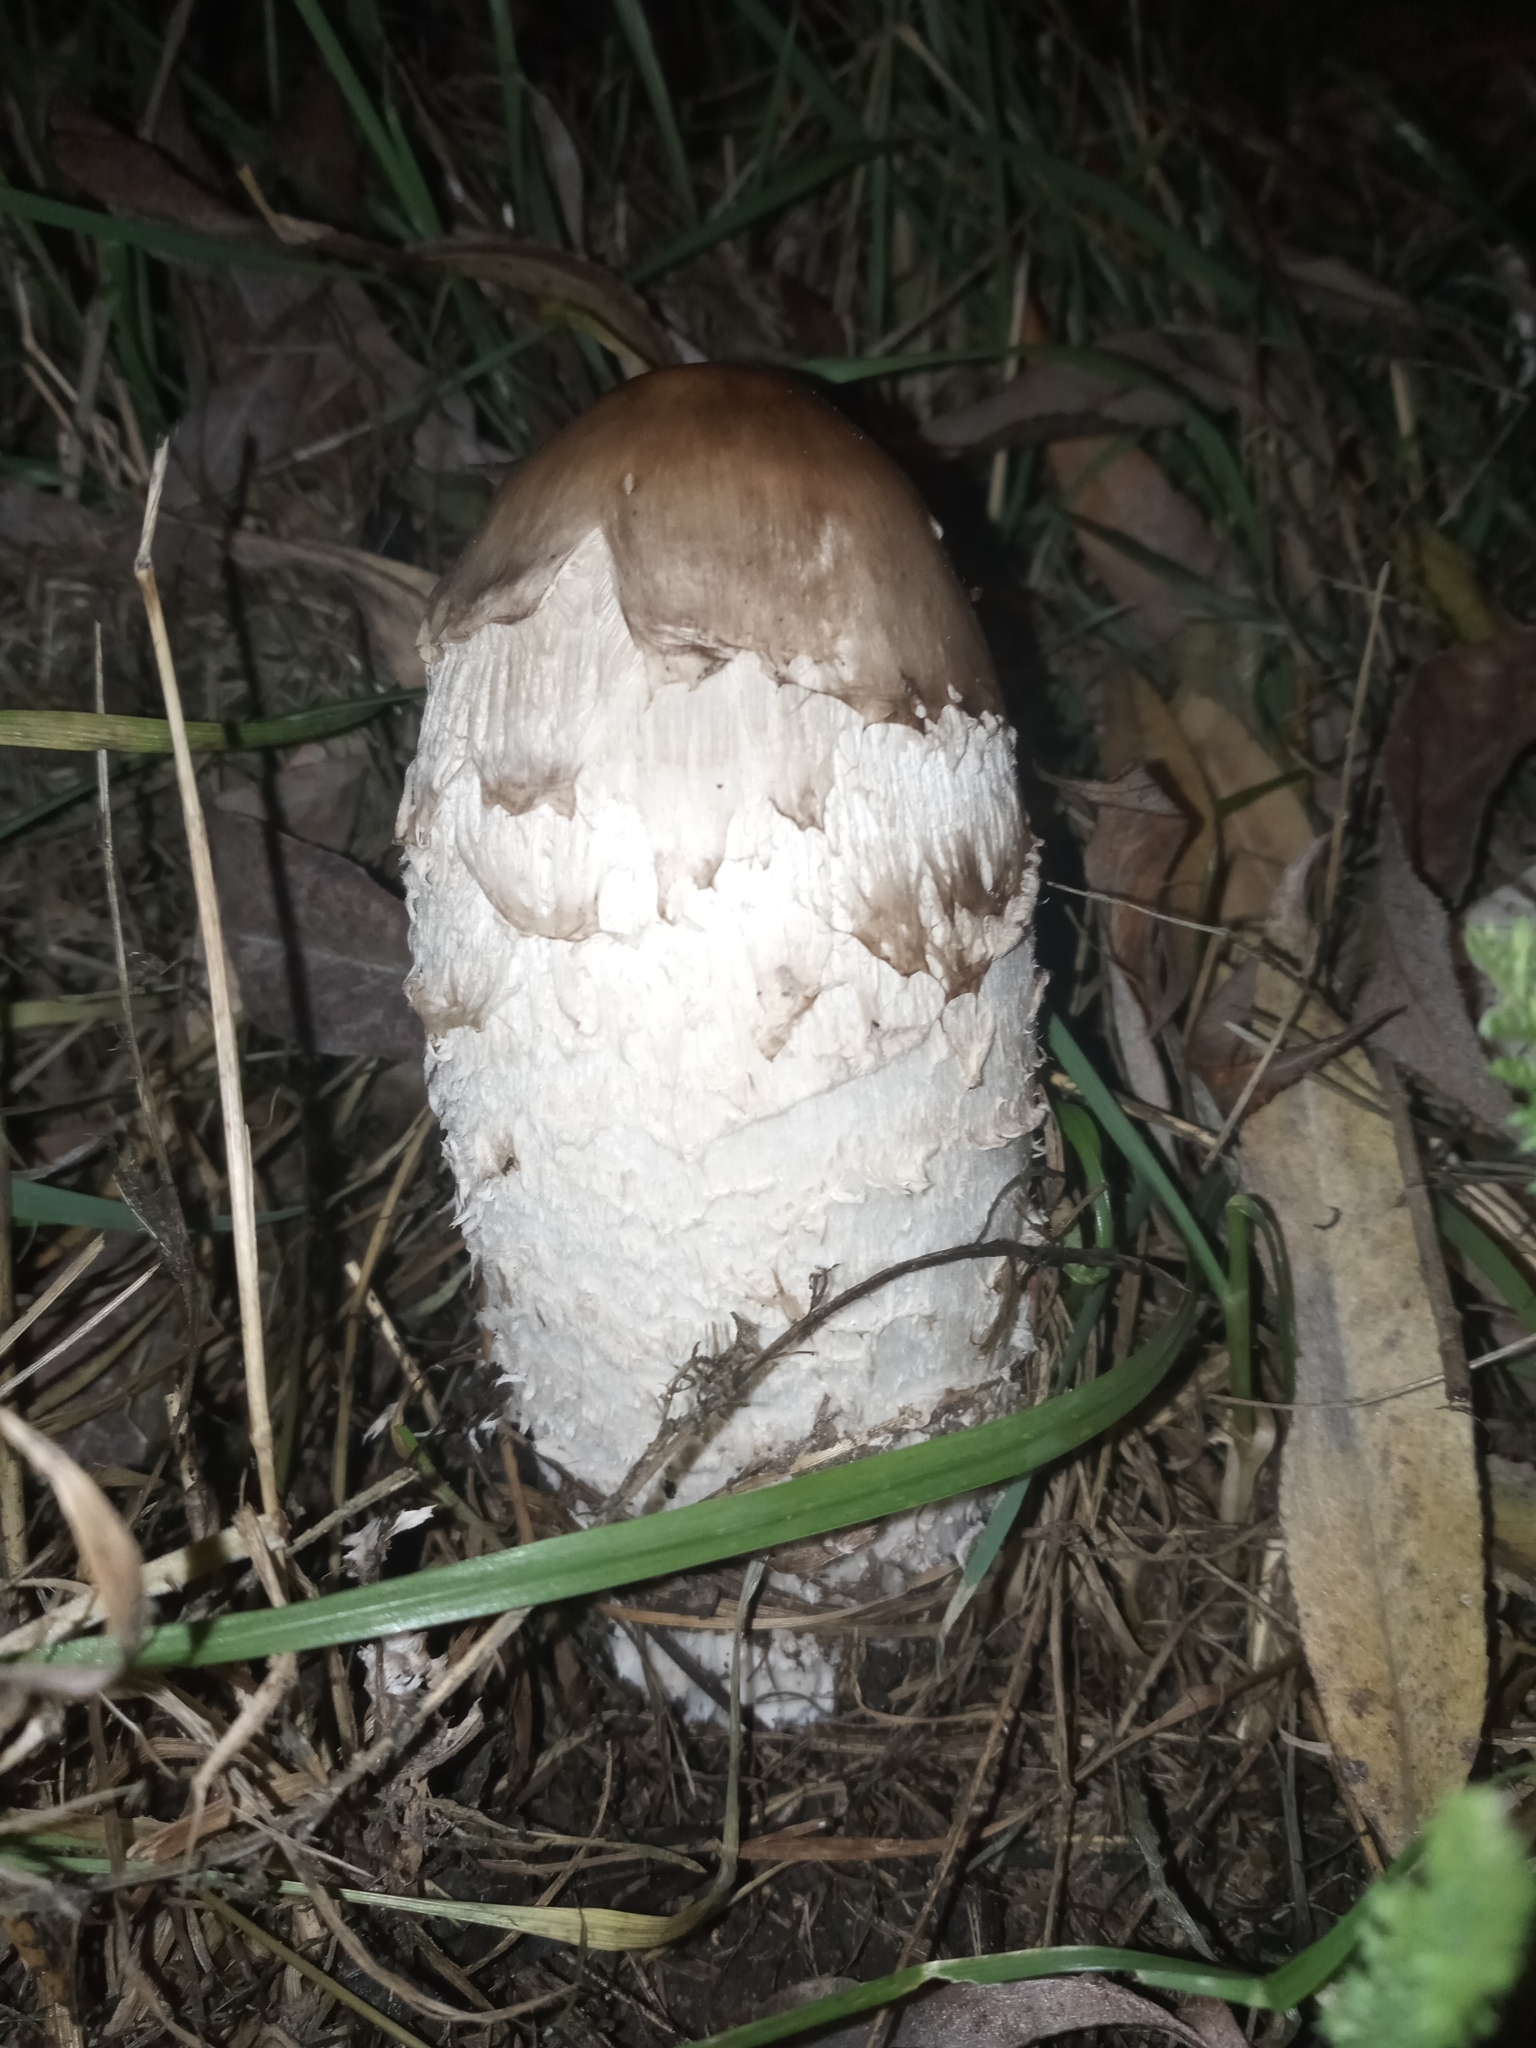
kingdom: Fungi
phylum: Basidiomycota
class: Agaricomycetes
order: Agaricales
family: Agaricaceae
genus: Coprinus
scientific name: Coprinus comatus
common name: Lawyer's wig
